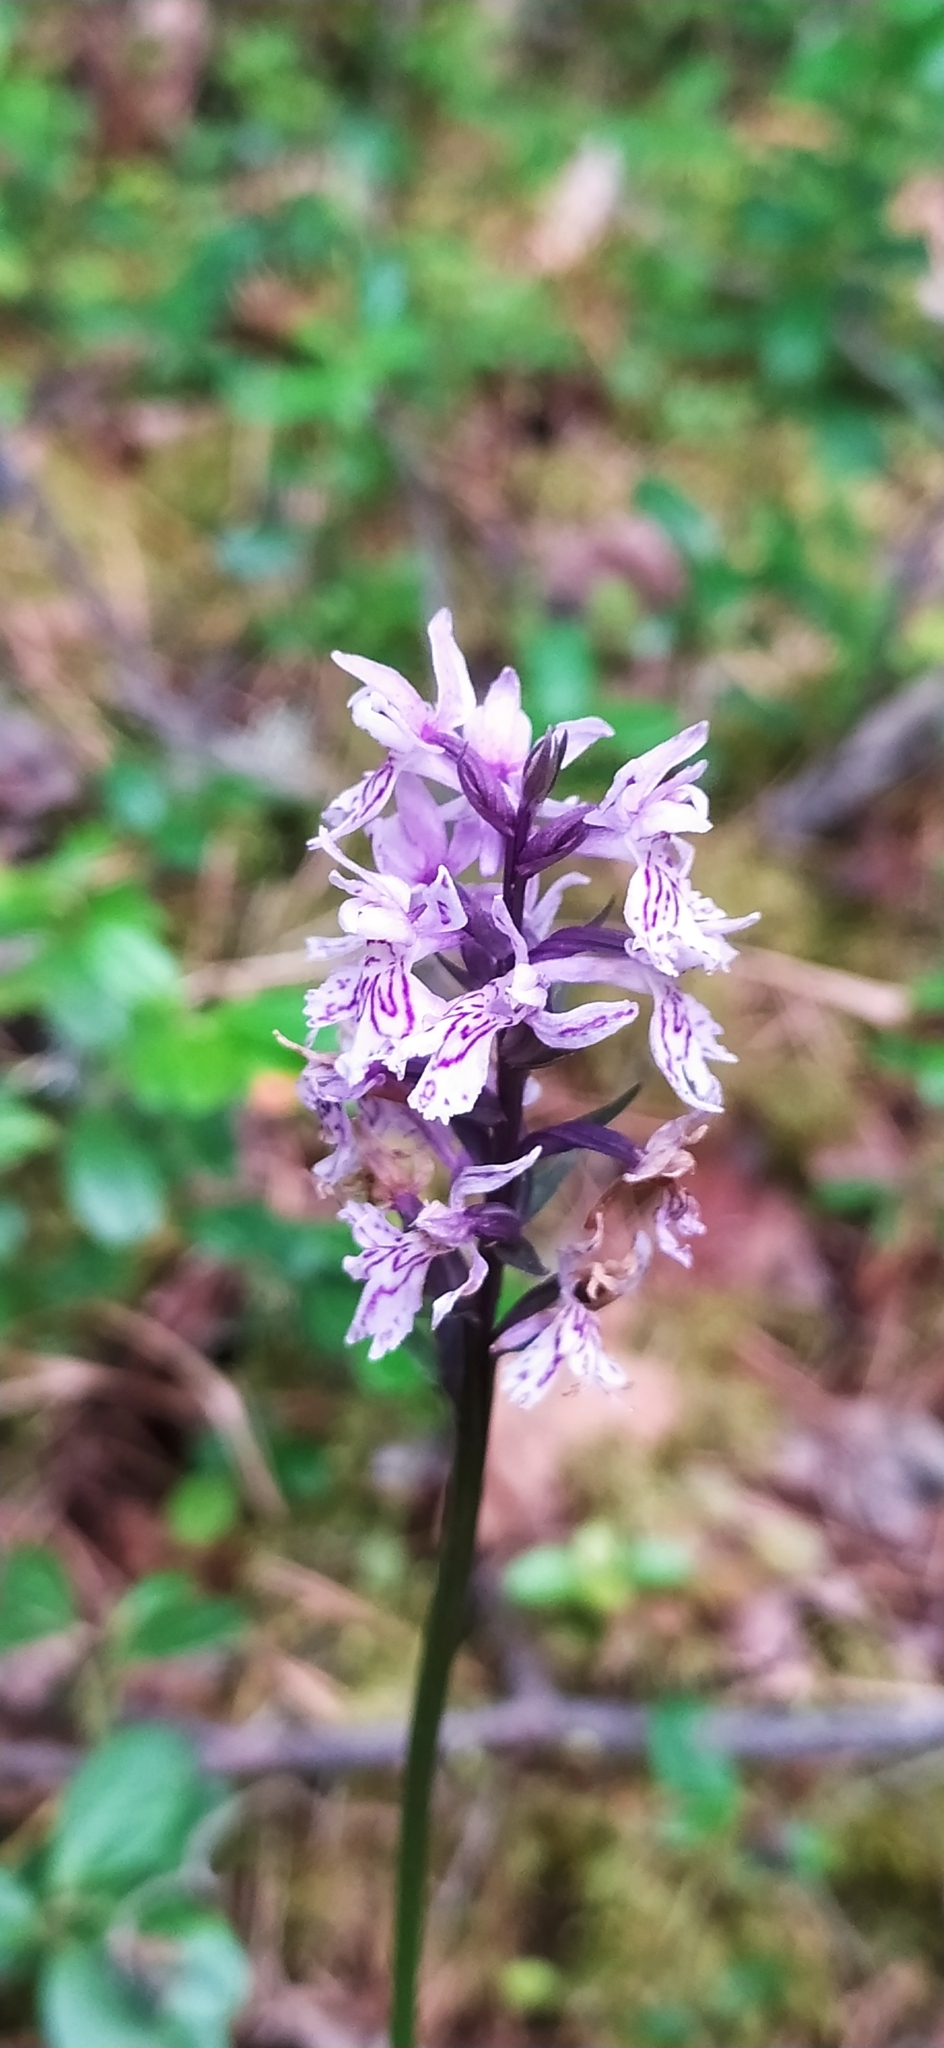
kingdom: Plantae
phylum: Tracheophyta
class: Liliopsida
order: Asparagales
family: Orchidaceae
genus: Dactylorhiza
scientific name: Dactylorhiza maculata
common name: Heath spotted-orchid
